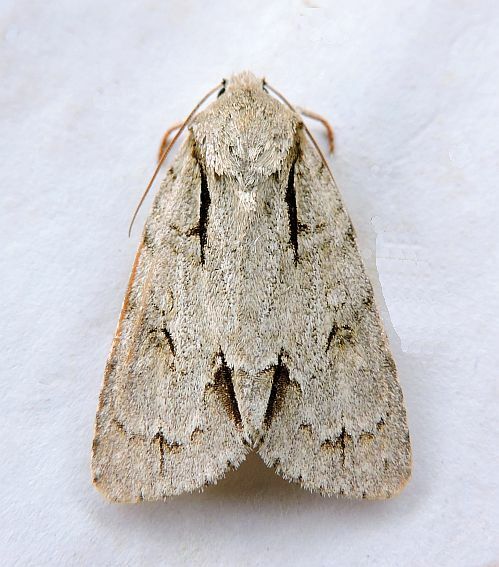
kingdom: Animalia
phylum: Arthropoda
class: Insecta
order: Lepidoptera
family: Noctuidae
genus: Acronicta
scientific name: Acronicta interrupta
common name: Interrupted dagger
